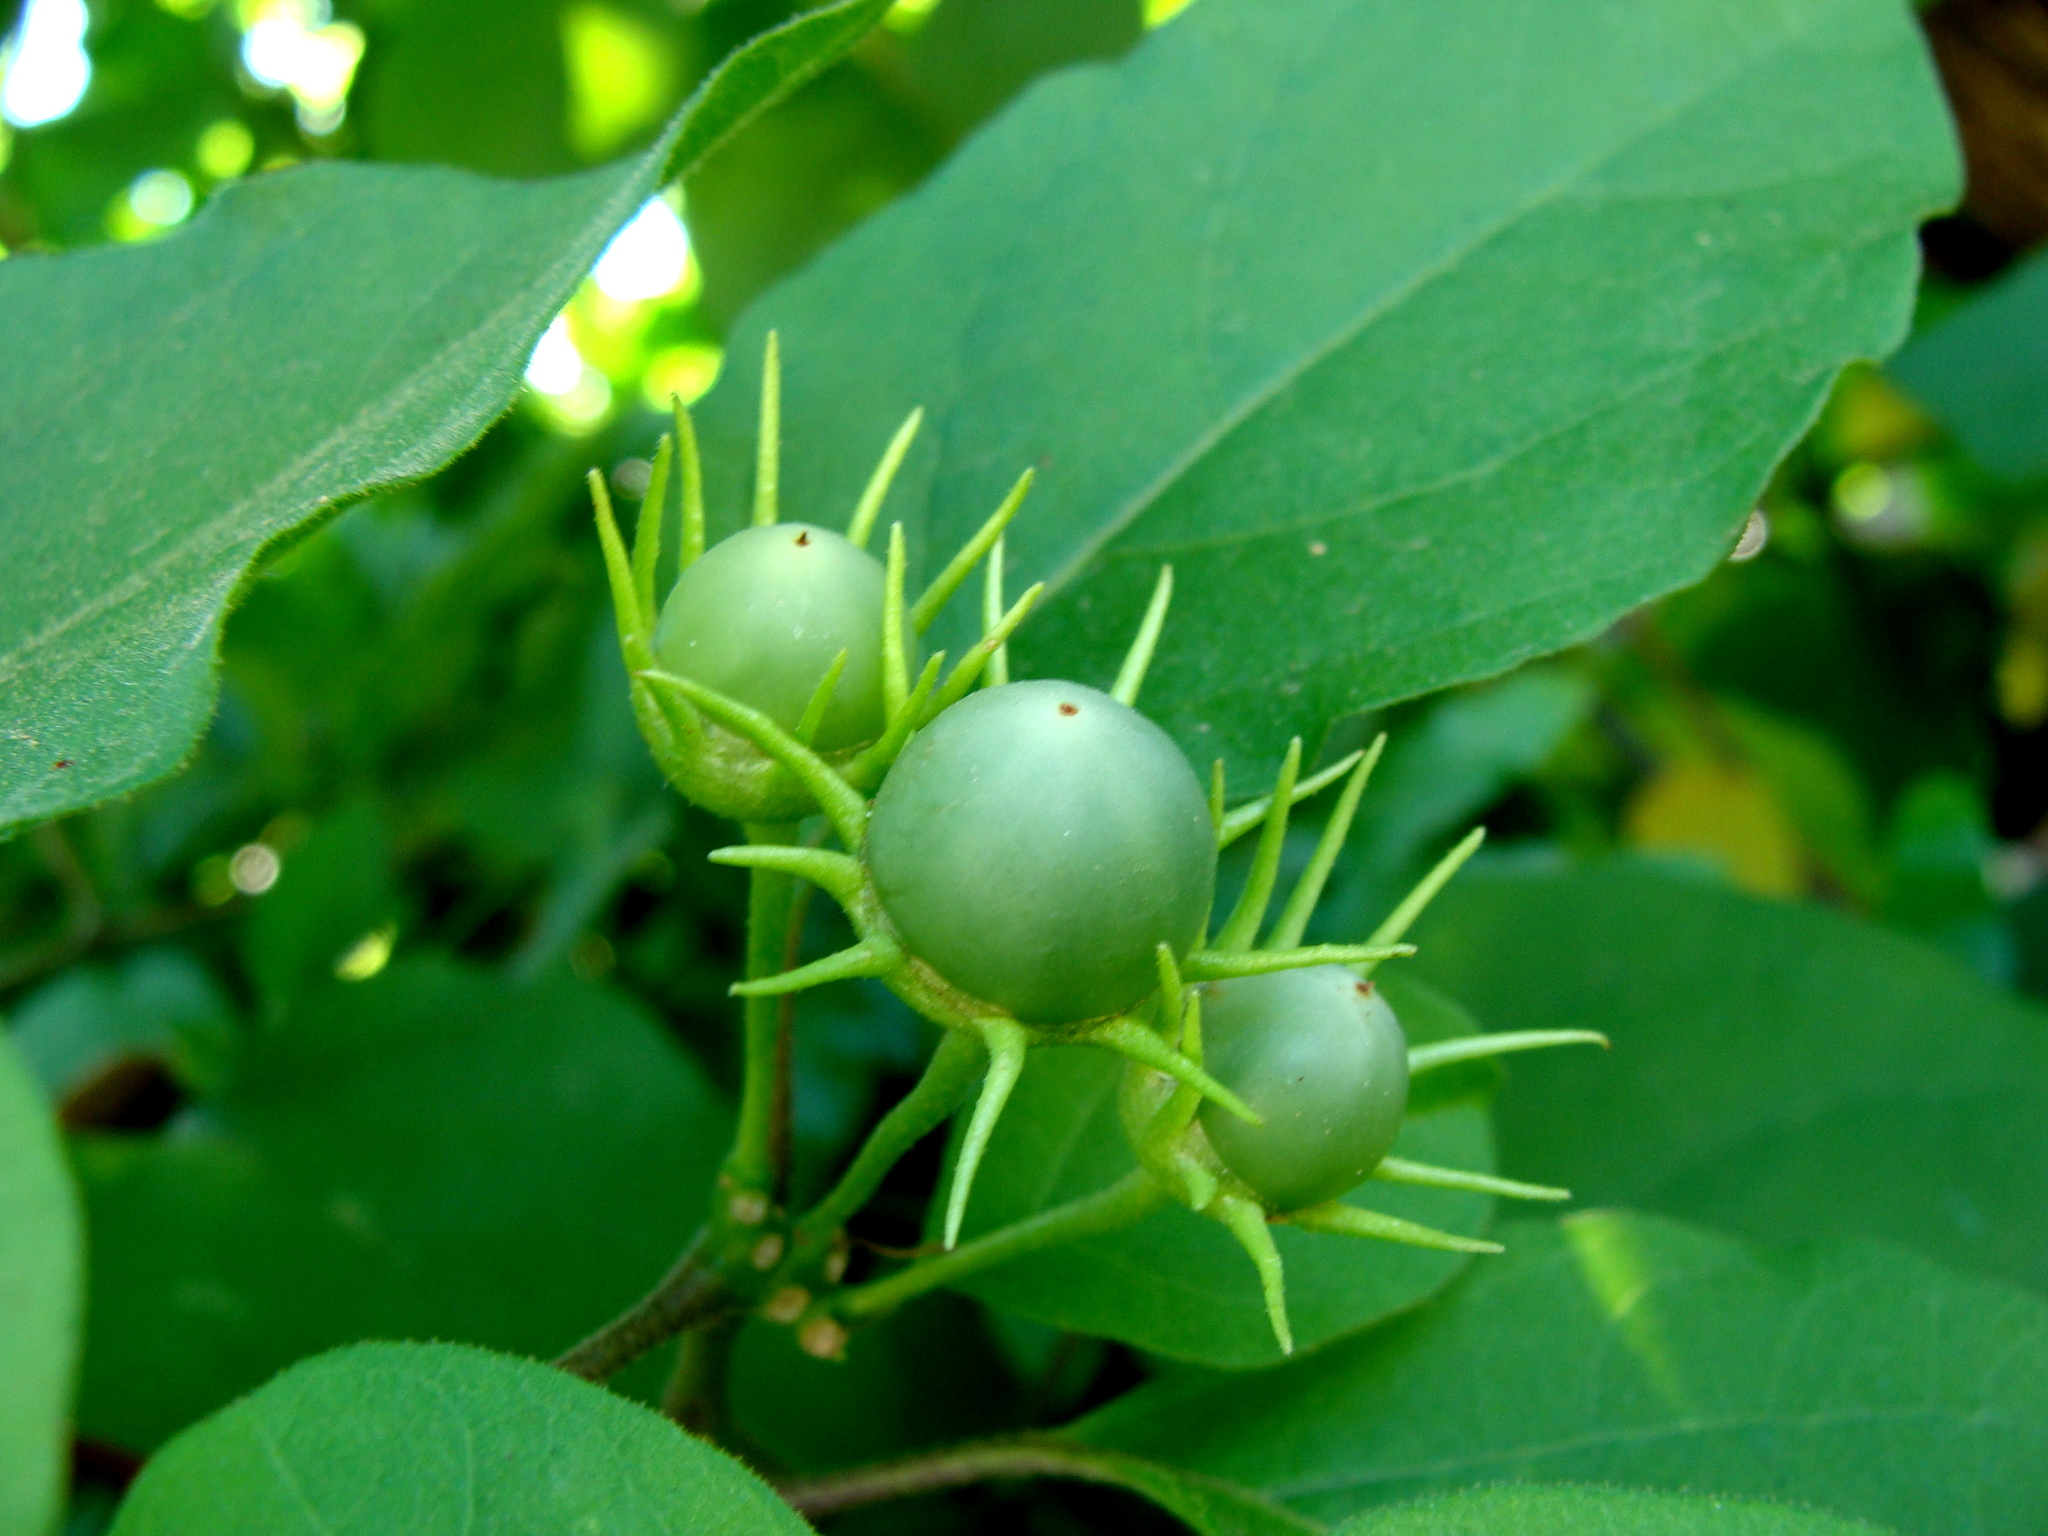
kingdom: Plantae
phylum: Tracheophyta
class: Magnoliopsida
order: Solanales
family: Solanaceae
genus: Lycianthes
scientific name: Lycianthes scandens
